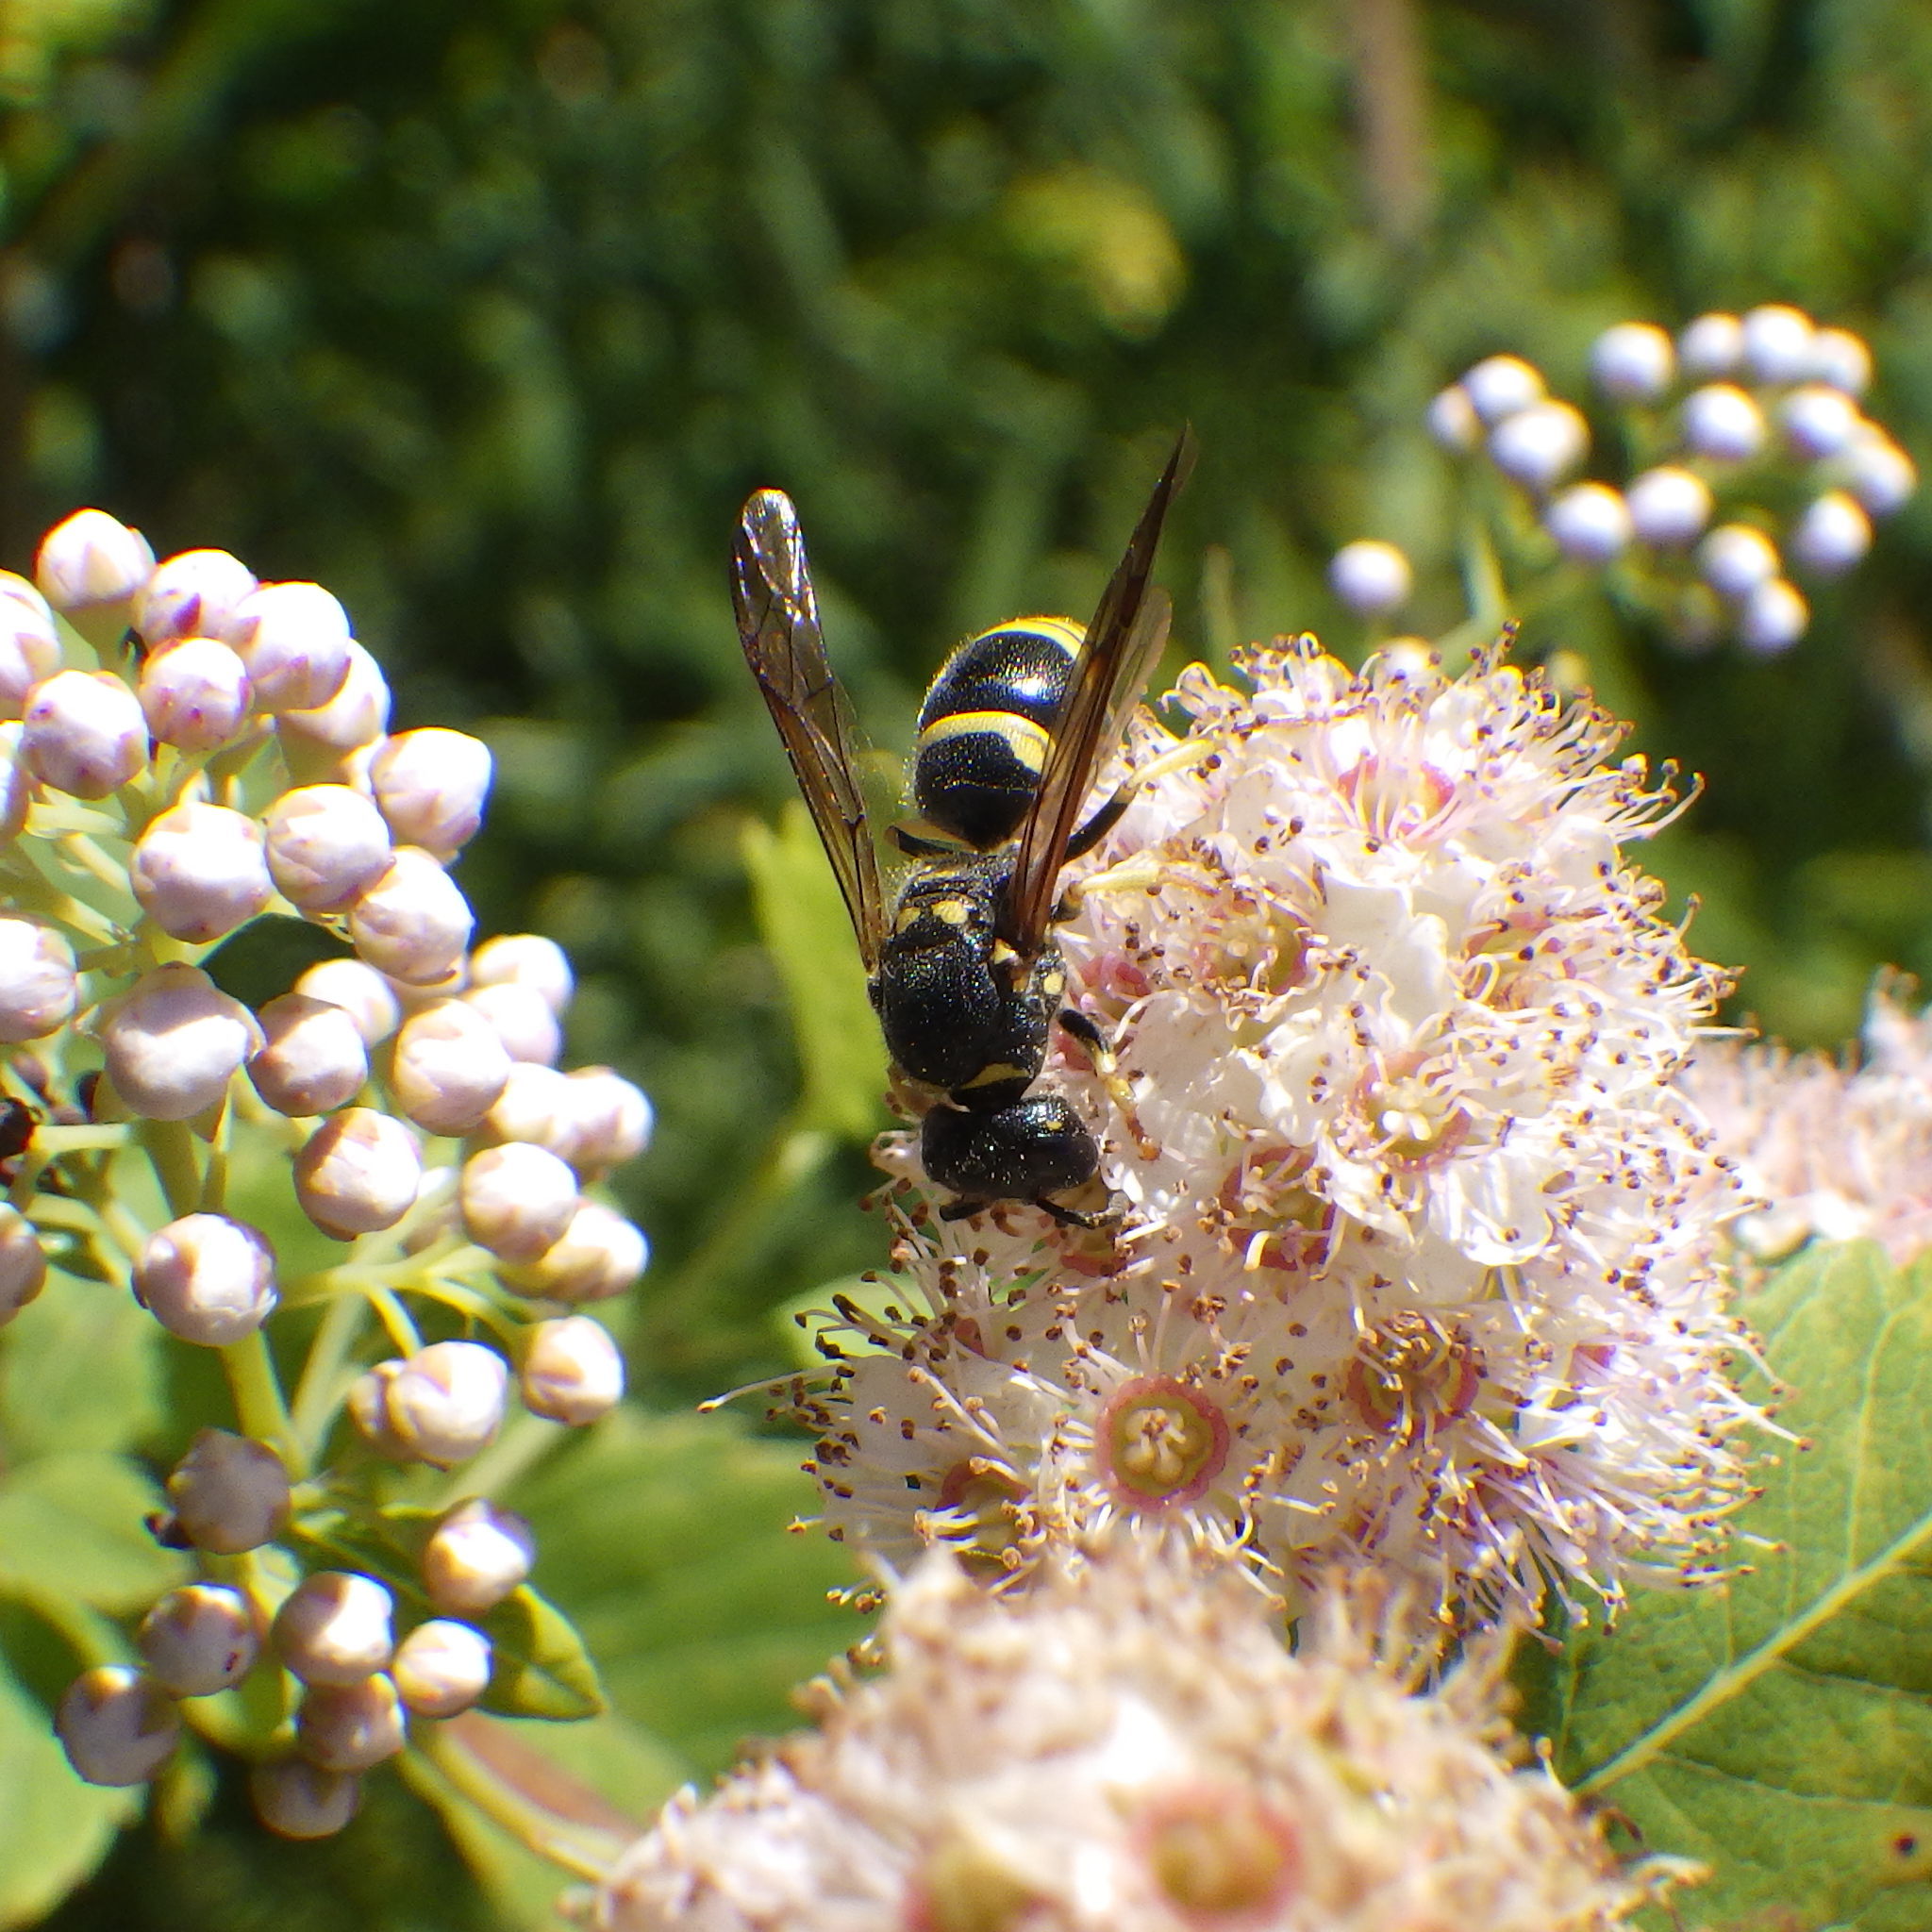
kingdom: Animalia
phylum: Arthropoda
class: Insecta
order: Hymenoptera
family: Vespidae
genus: Ancistrocerus
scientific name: Ancistrocerus gazella
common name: European tube wasp
